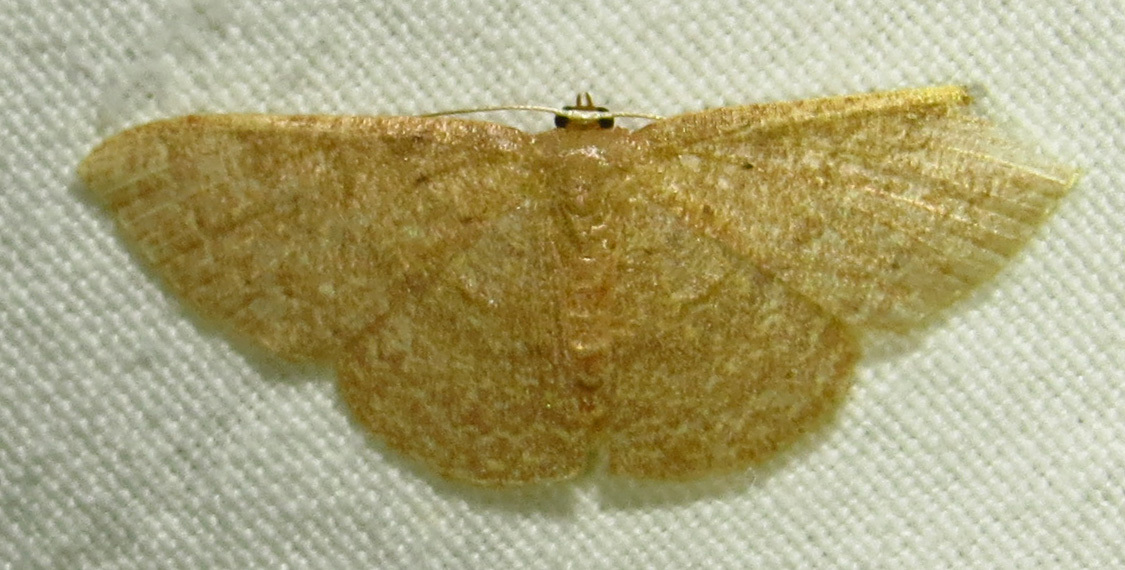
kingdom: Animalia
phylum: Arthropoda
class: Insecta
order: Lepidoptera
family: Geometridae
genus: Pleuroprucha
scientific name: Pleuroprucha insulsaria
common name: Common tan wave
